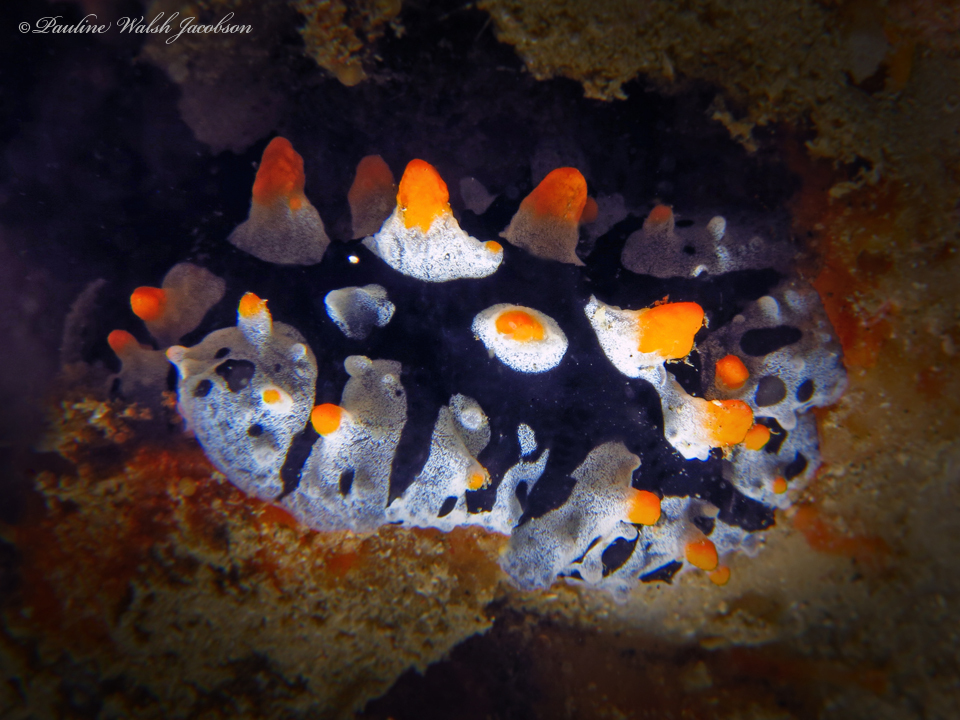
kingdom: Animalia
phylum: Mollusca
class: Gastropoda
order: Nudibranchia
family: Phyllidiidae
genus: Phyllidia
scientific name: Phyllidia picta
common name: Black-rayed phyllidia
